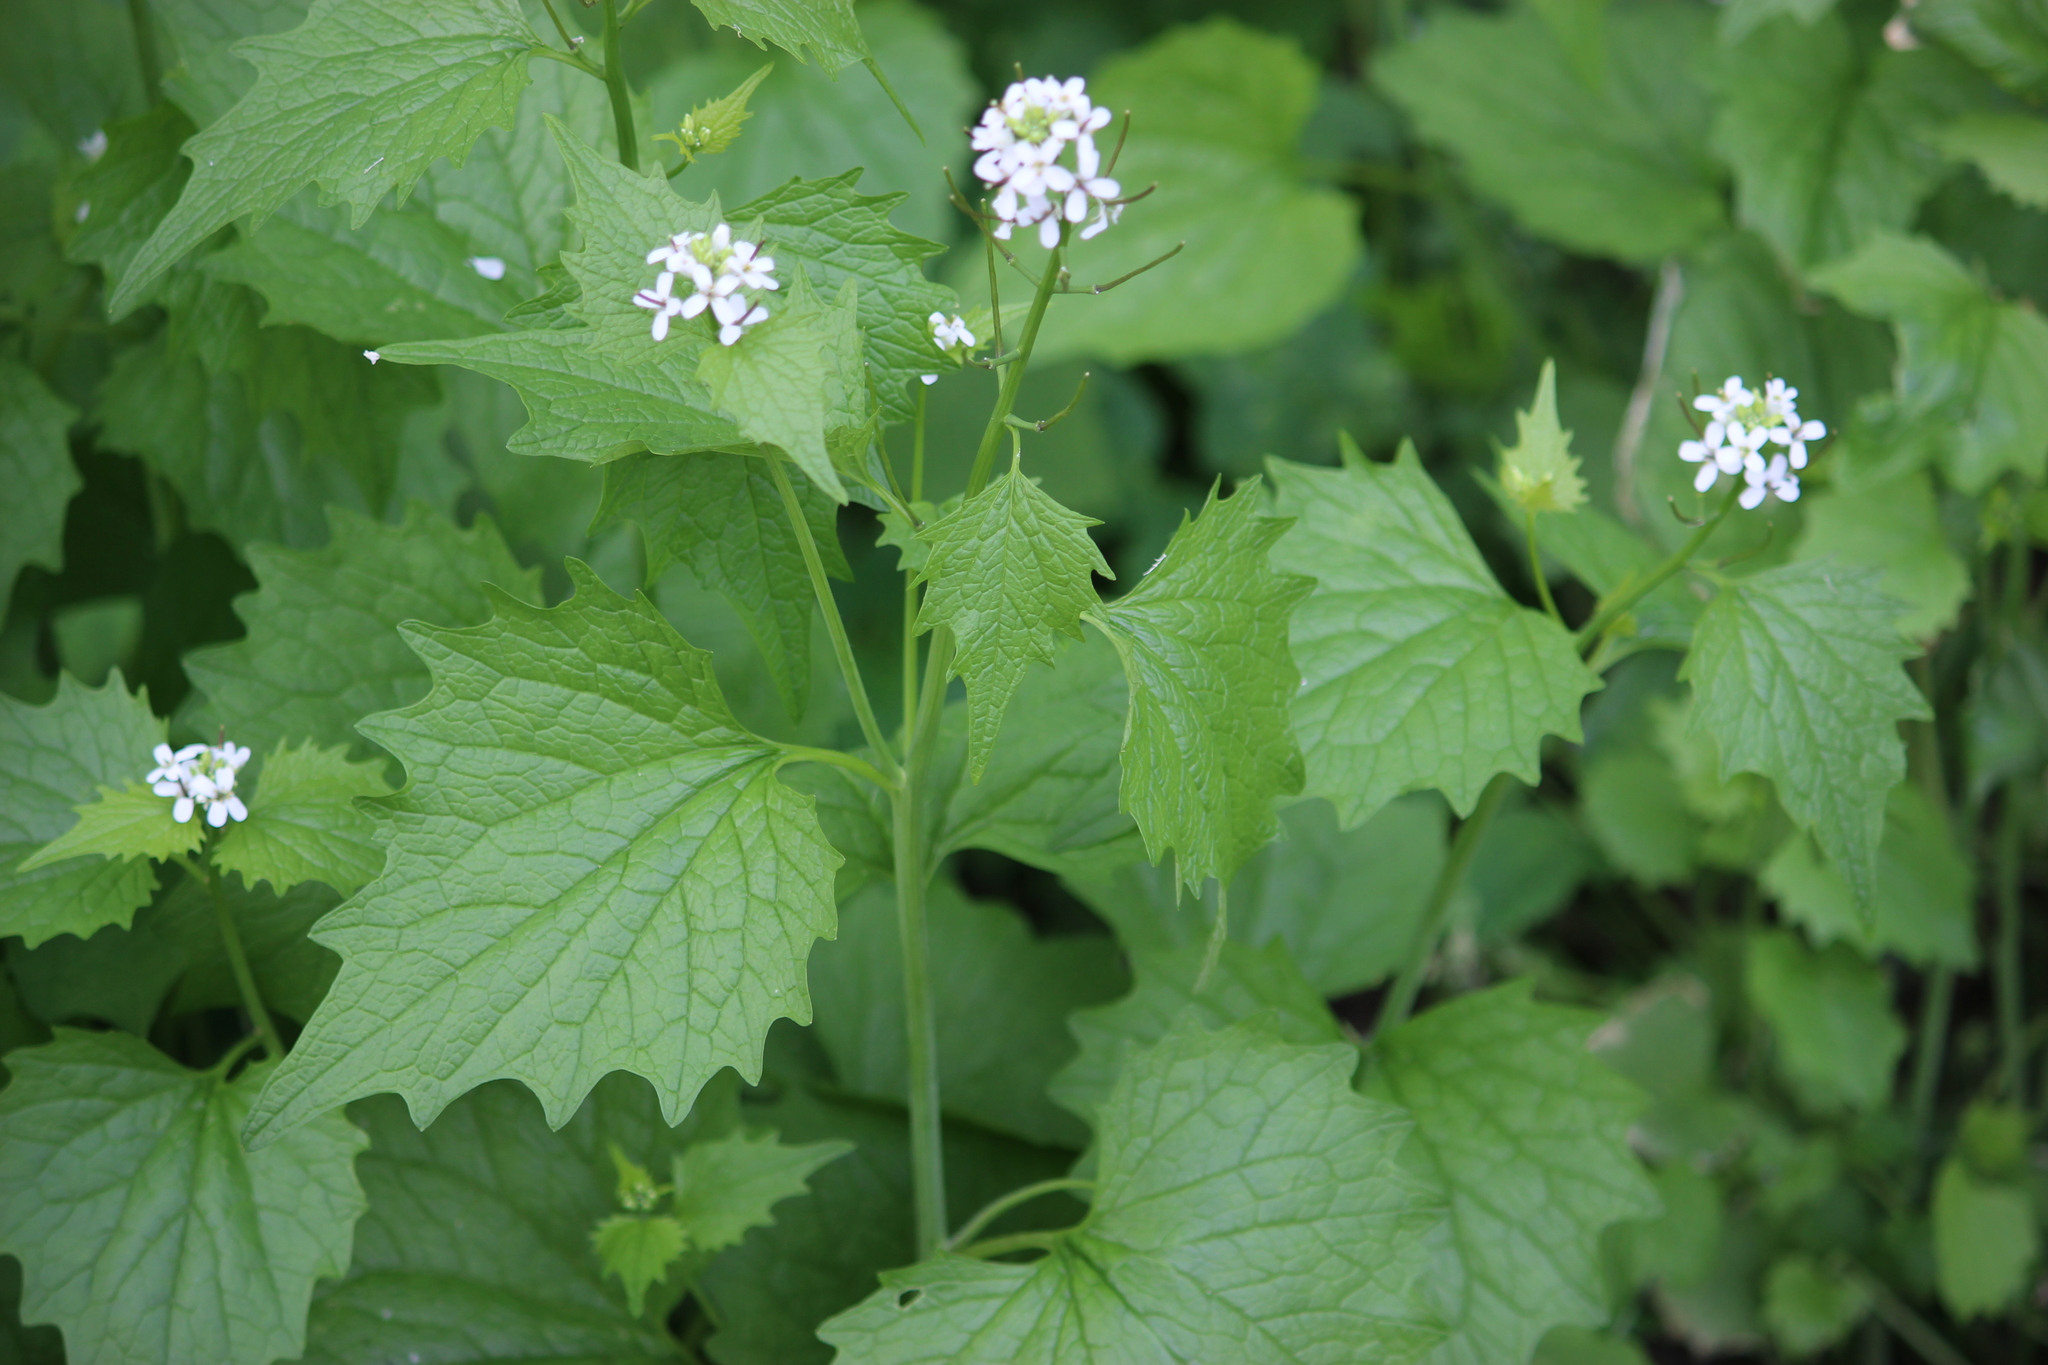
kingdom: Plantae
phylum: Tracheophyta
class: Magnoliopsida
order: Brassicales
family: Brassicaceae
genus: Alliaria
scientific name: Alliaria petiolata
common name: Garlic mustard
